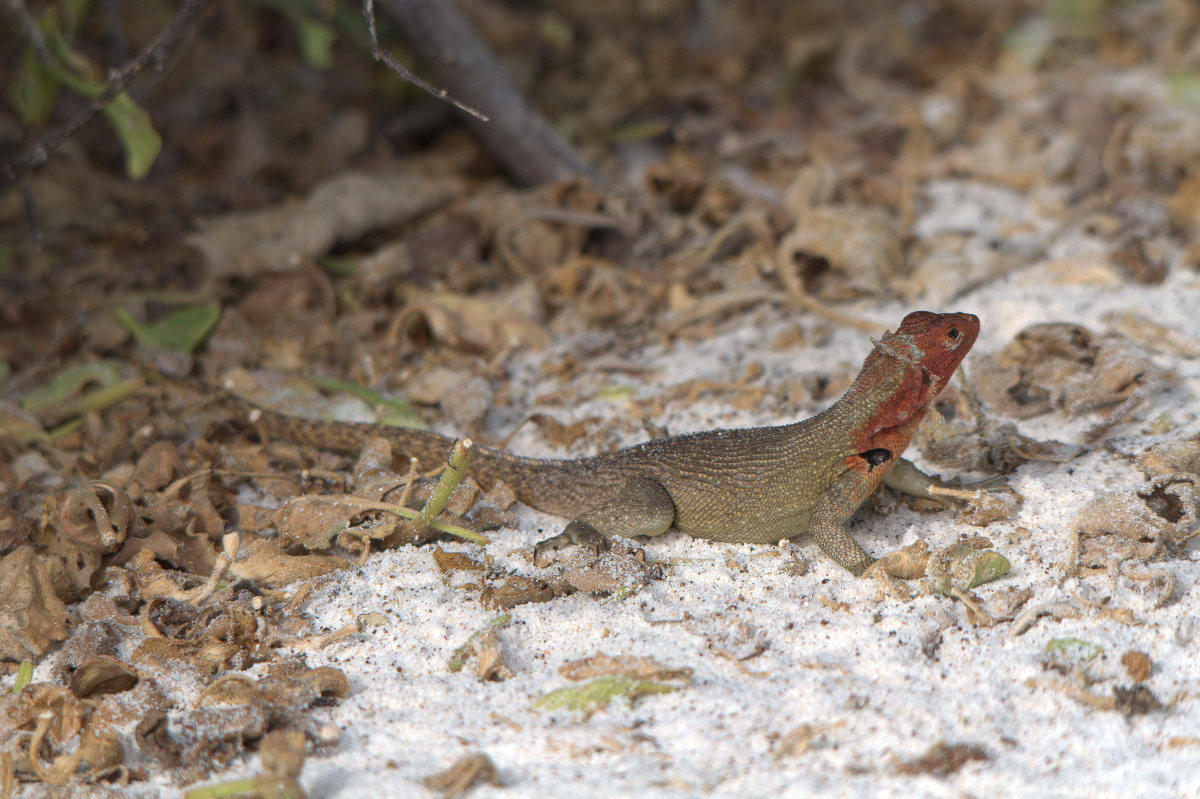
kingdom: Animalia
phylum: Chordata
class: Squamata
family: Tropiduridae
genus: Microlophus
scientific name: Microlophus delanonis
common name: Hood lava lizard
